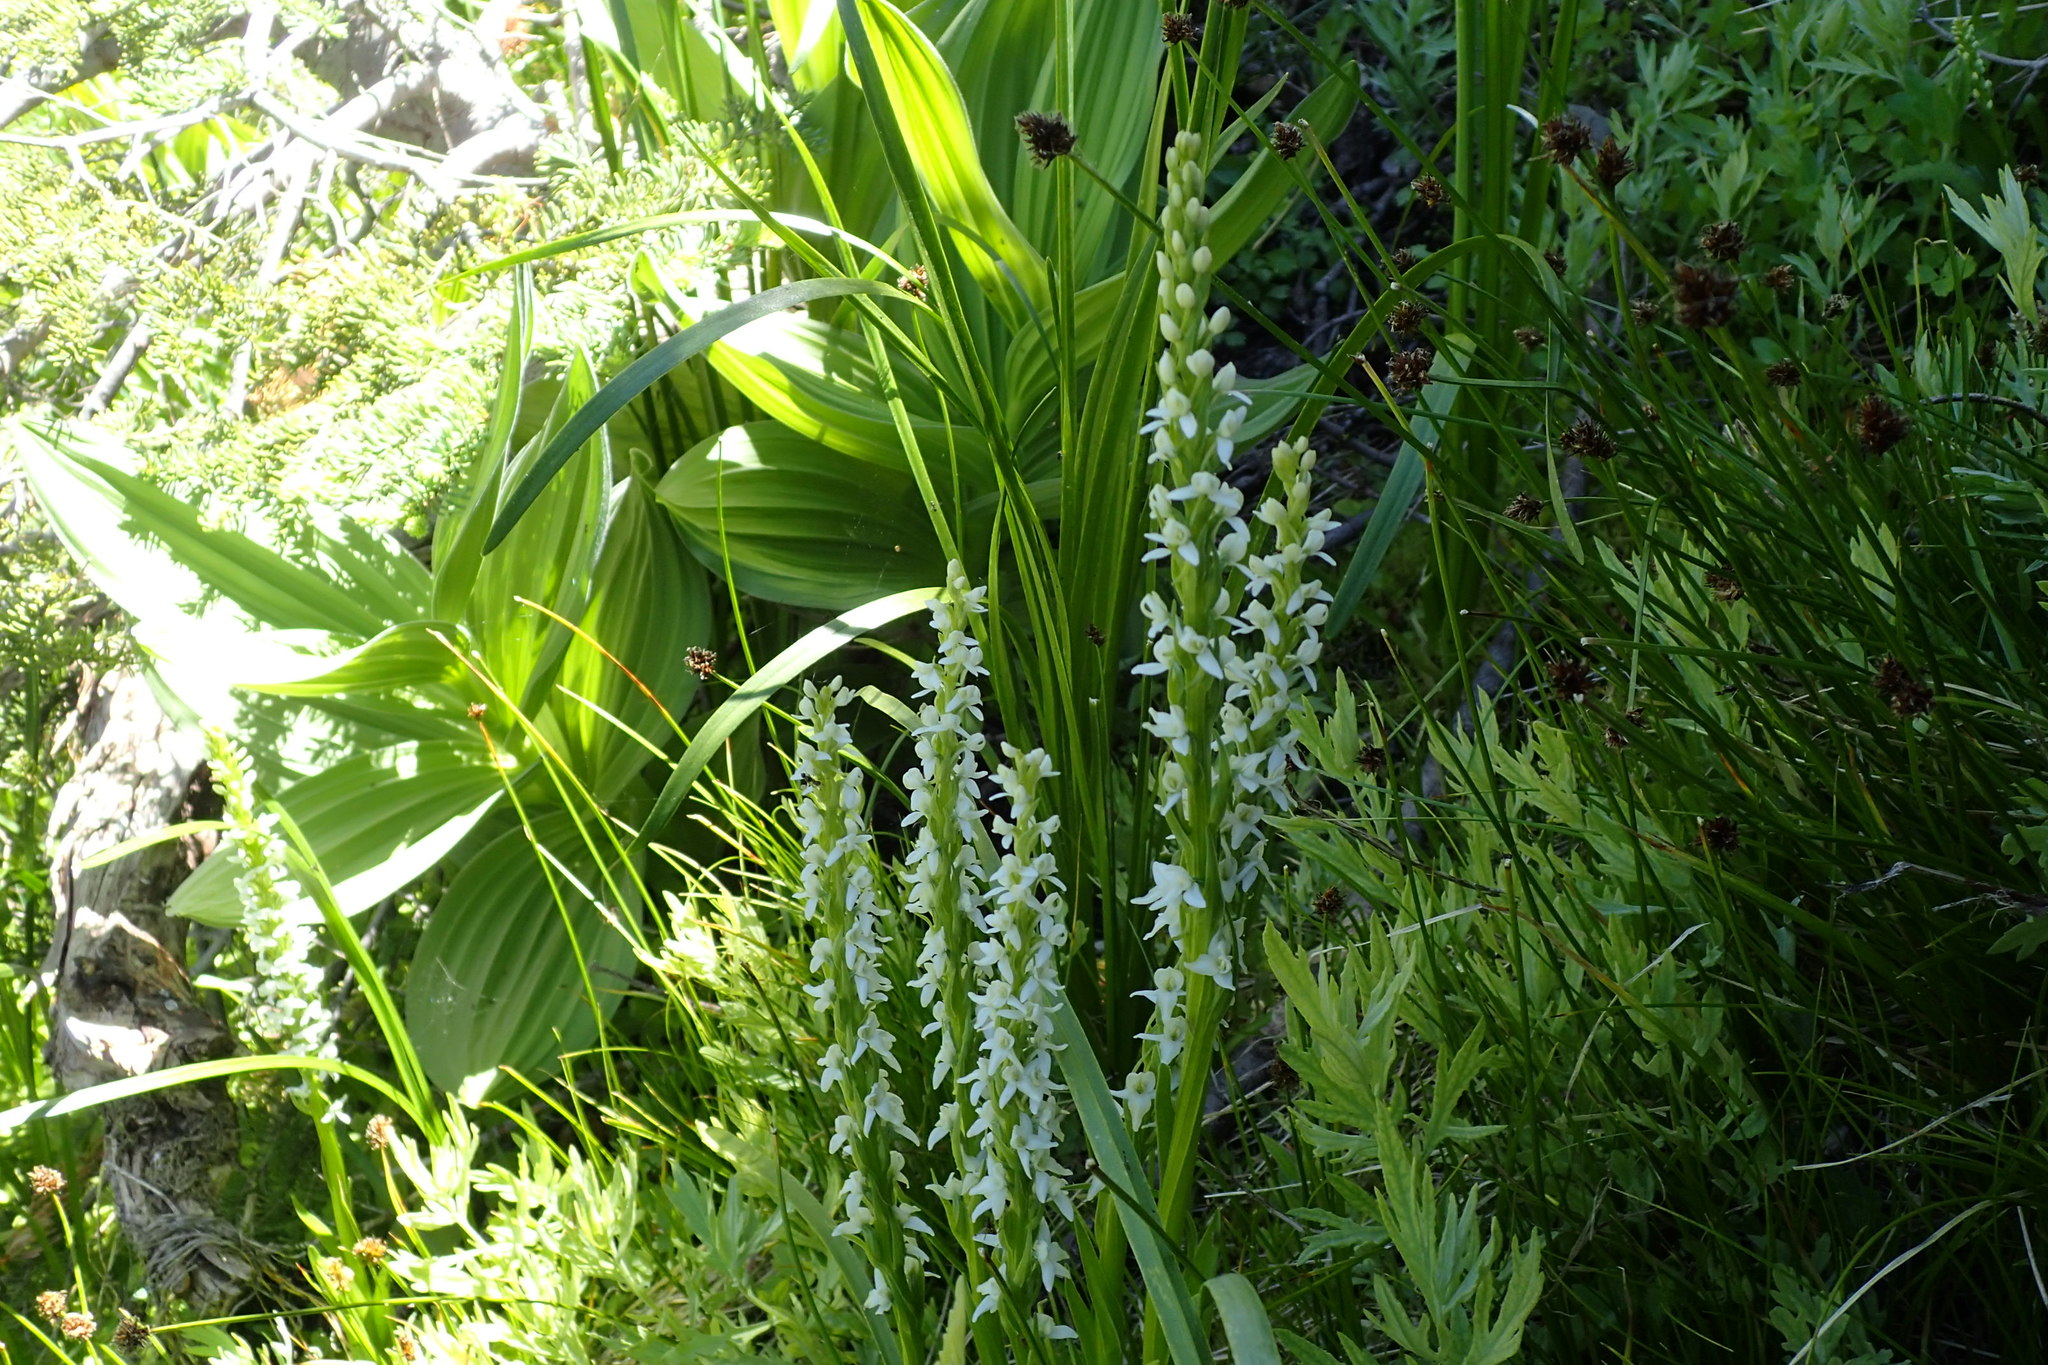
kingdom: Plantae
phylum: Tracheophyta
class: Liliopsida
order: Asparagales
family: Orchidaceae
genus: Platanthera
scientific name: Platanthera dilatata
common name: Bog candles
